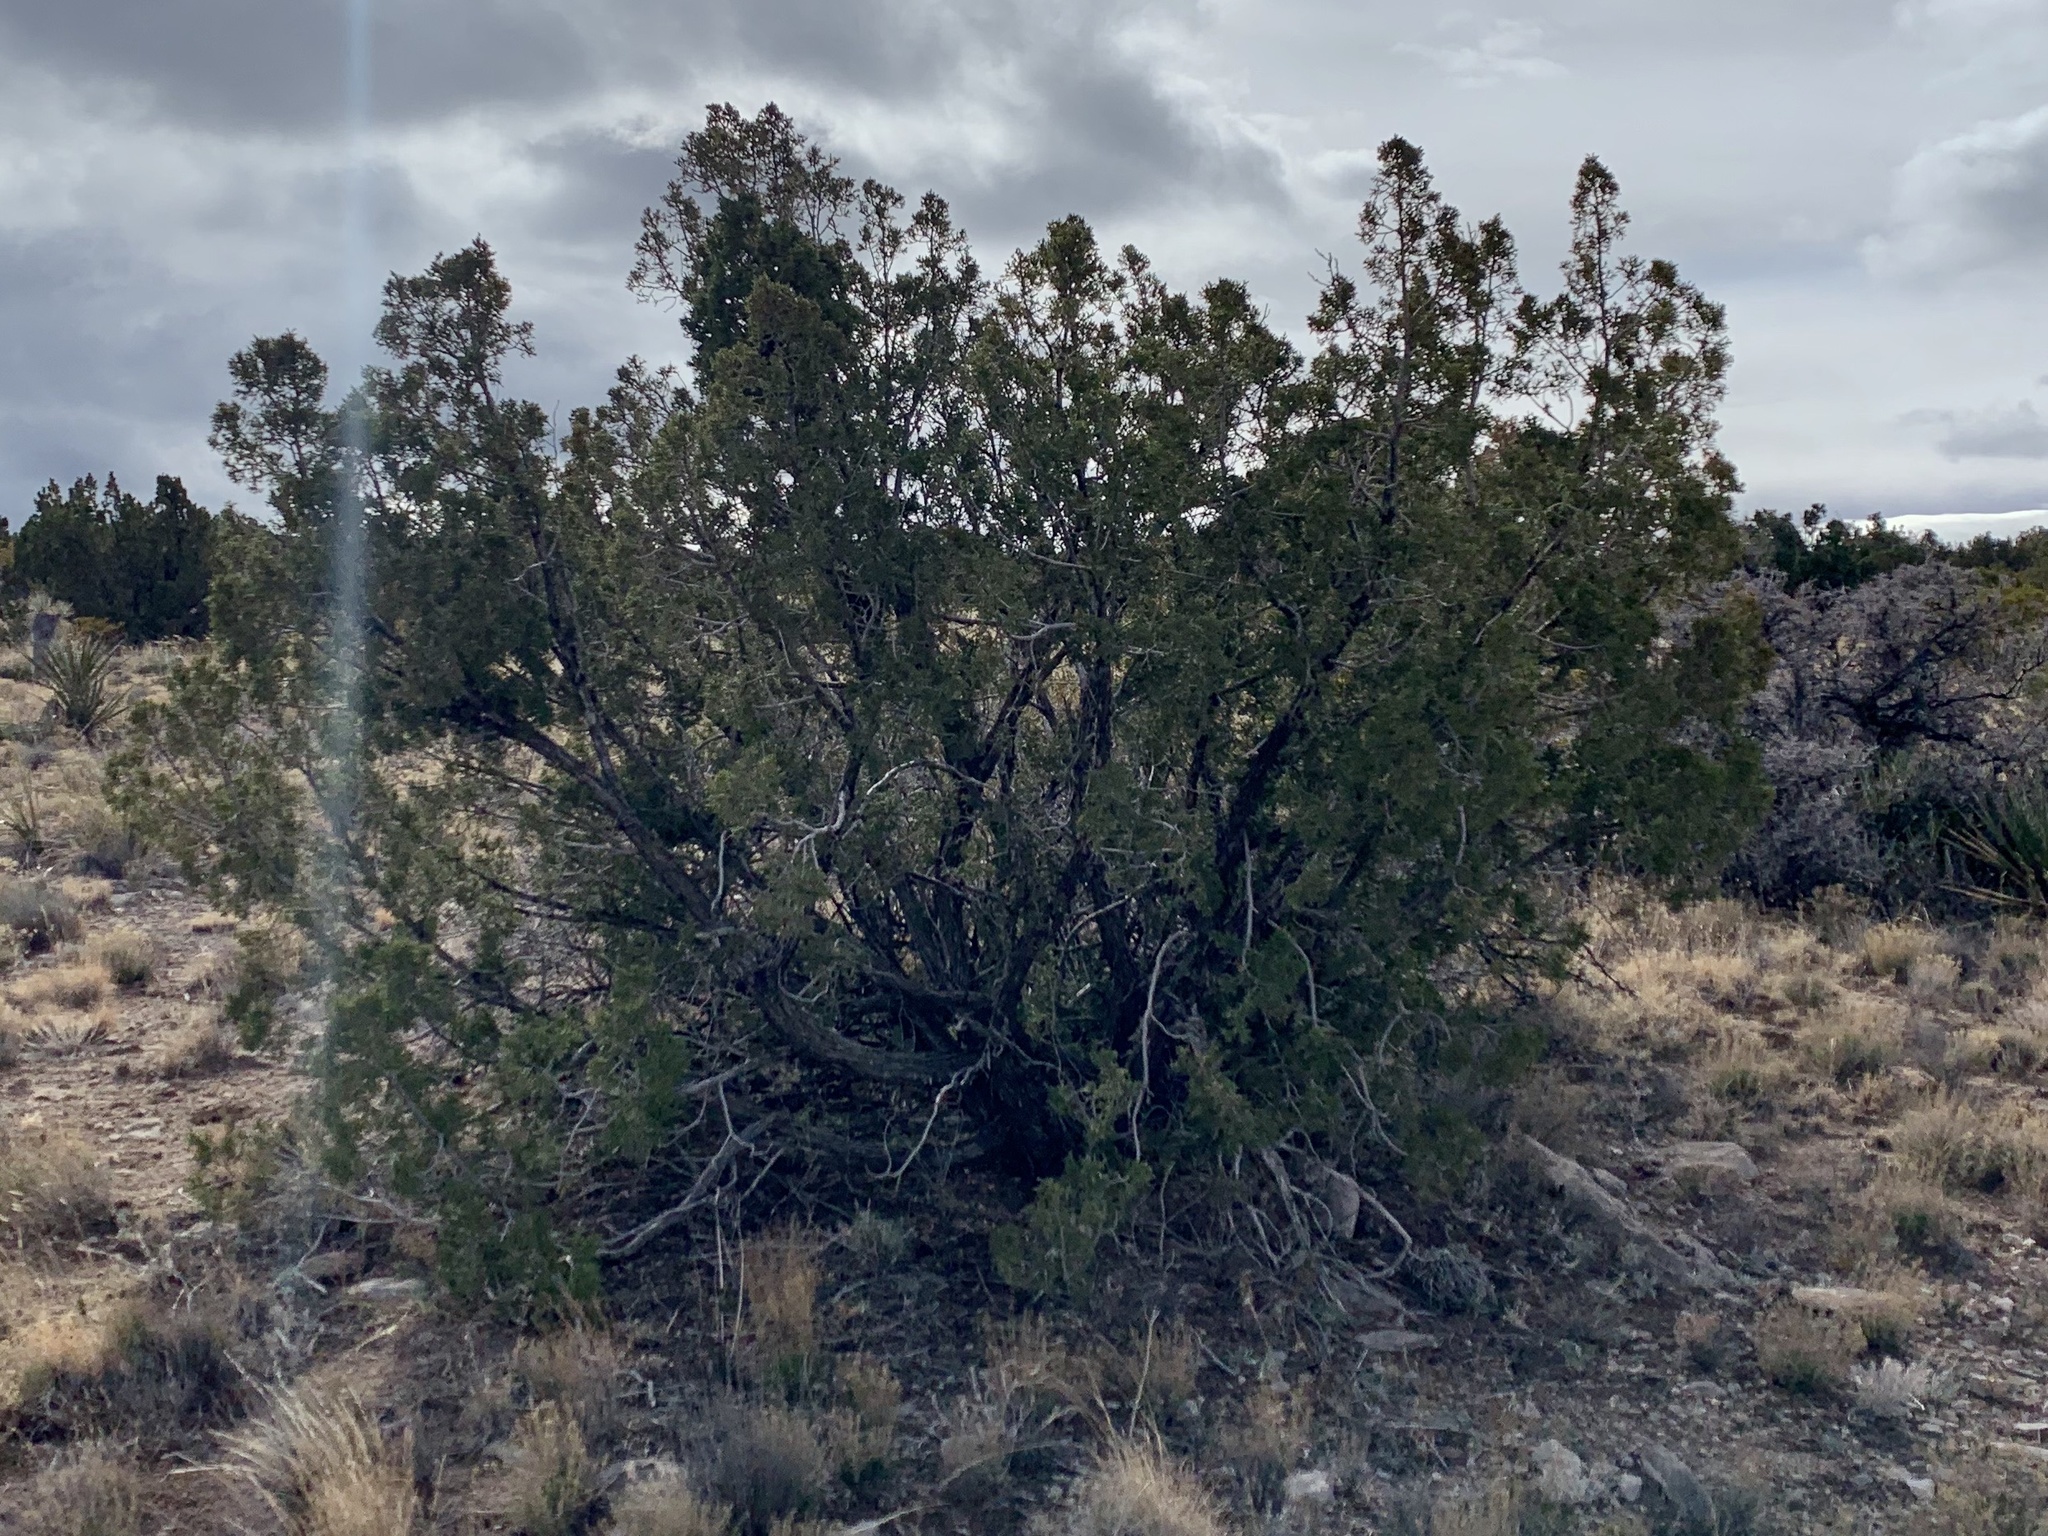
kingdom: Plantae
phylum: Tracheophyta
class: Pinopsida
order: Pinales
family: Cupressaceae
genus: Juniperus
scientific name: Juniperus monosperma
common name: One-seed juniper
